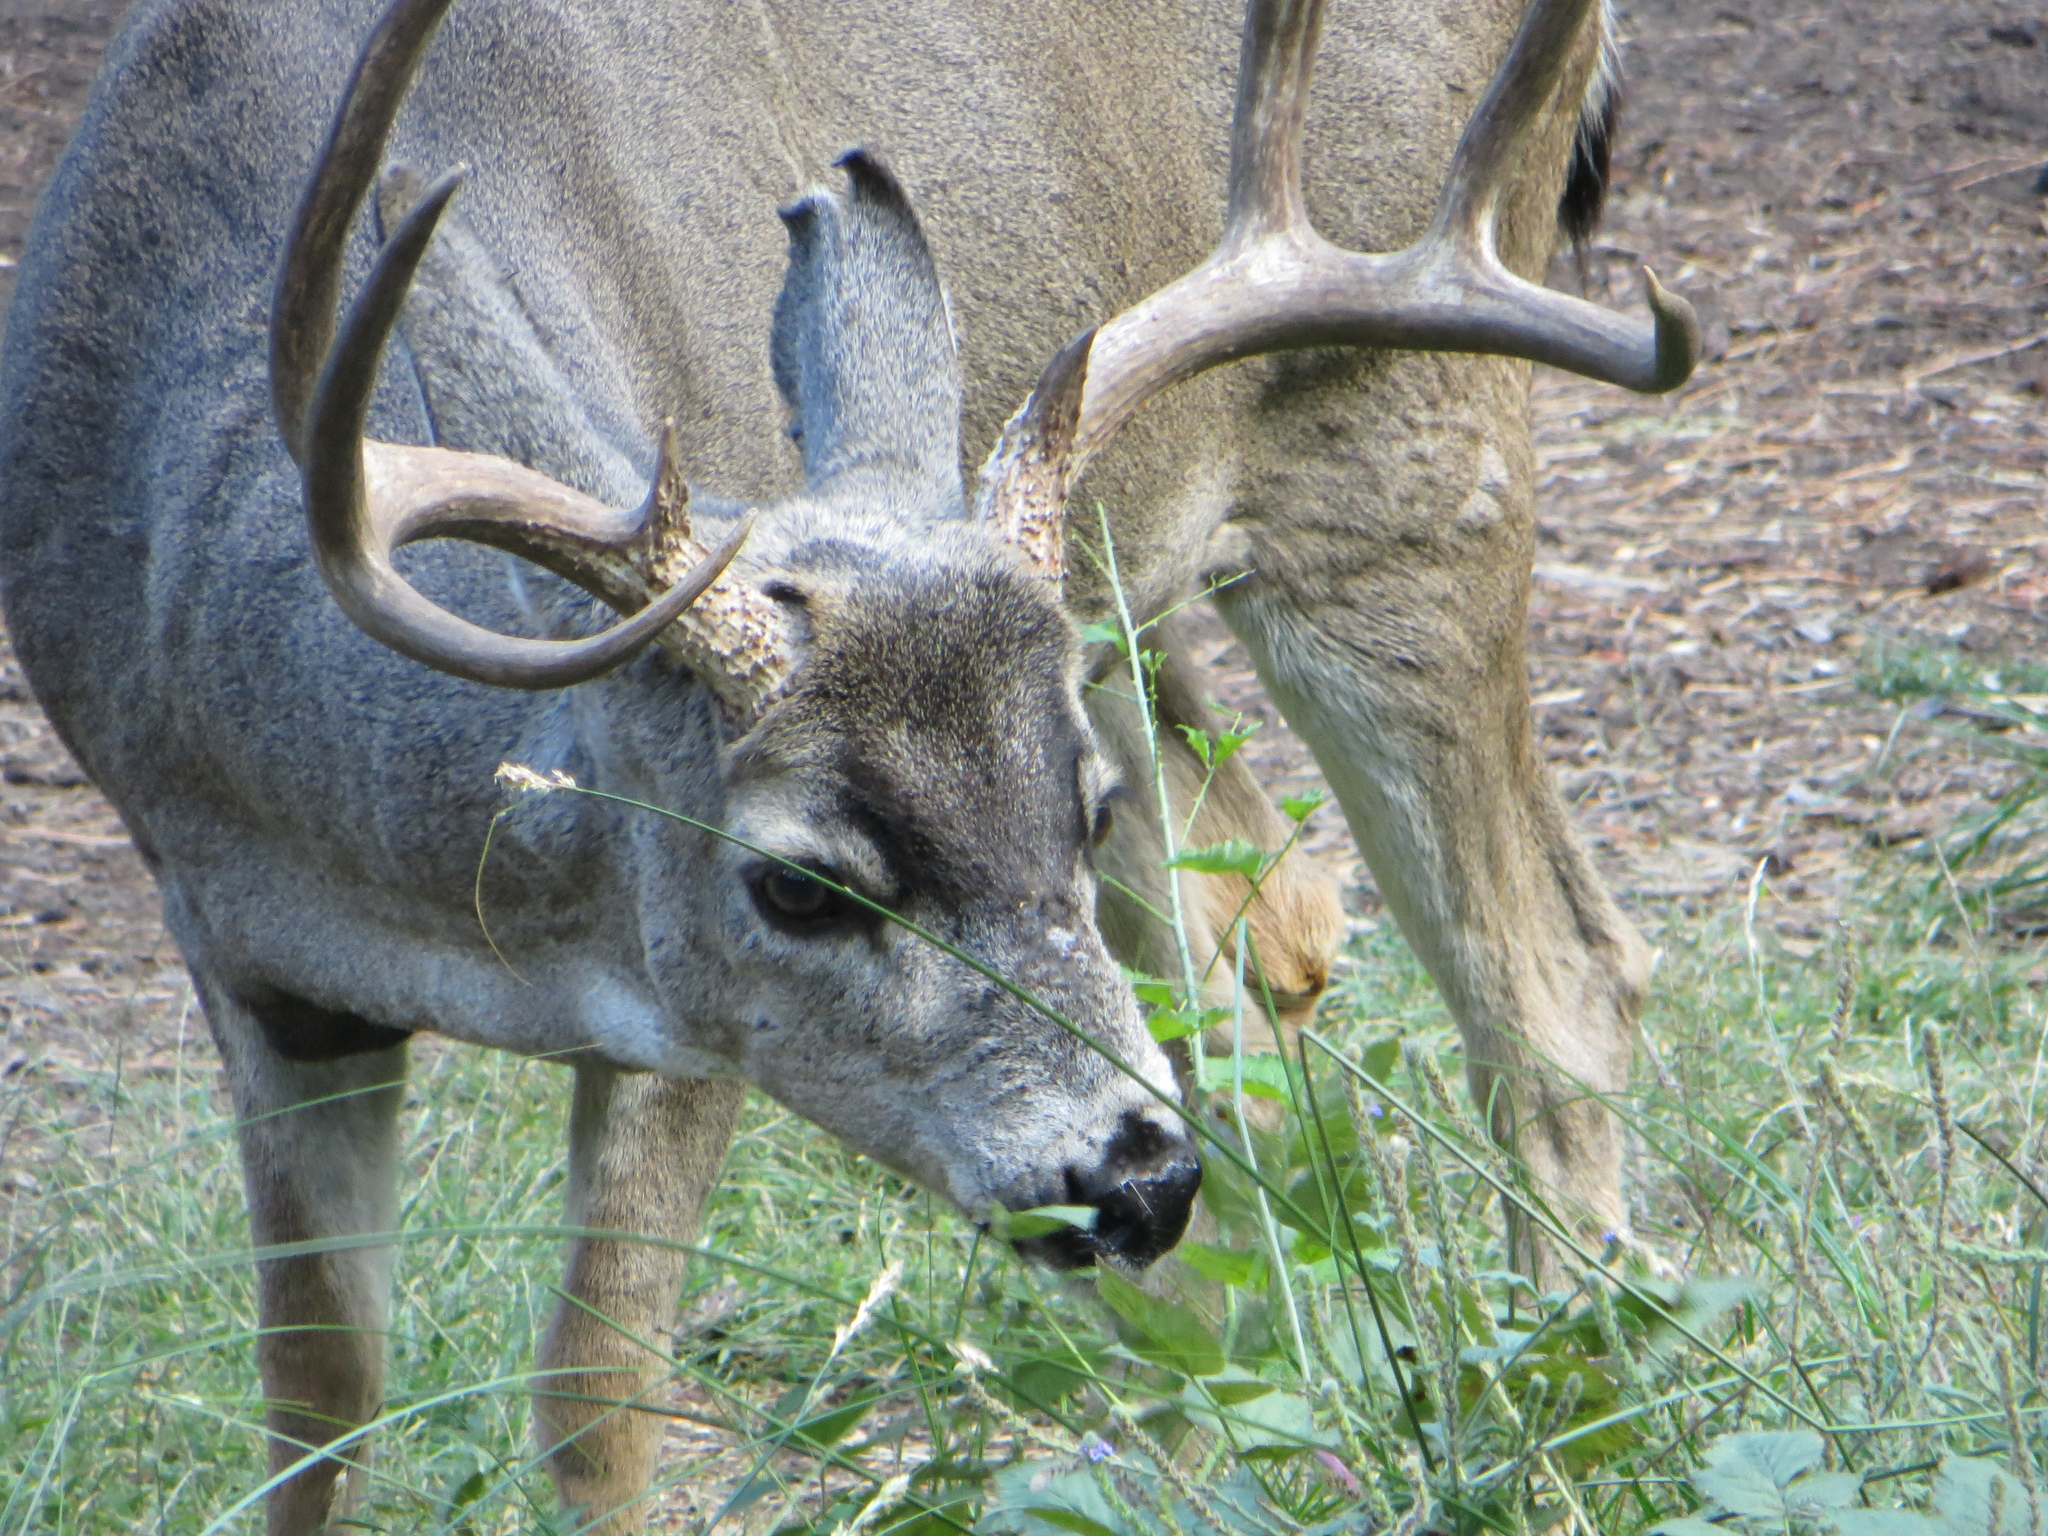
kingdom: Animalia
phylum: Chordata
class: Mammalia
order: Artiodactyla
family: Cervidae
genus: Odocoileus
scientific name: Odocoileus hemionus
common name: Mule deer
